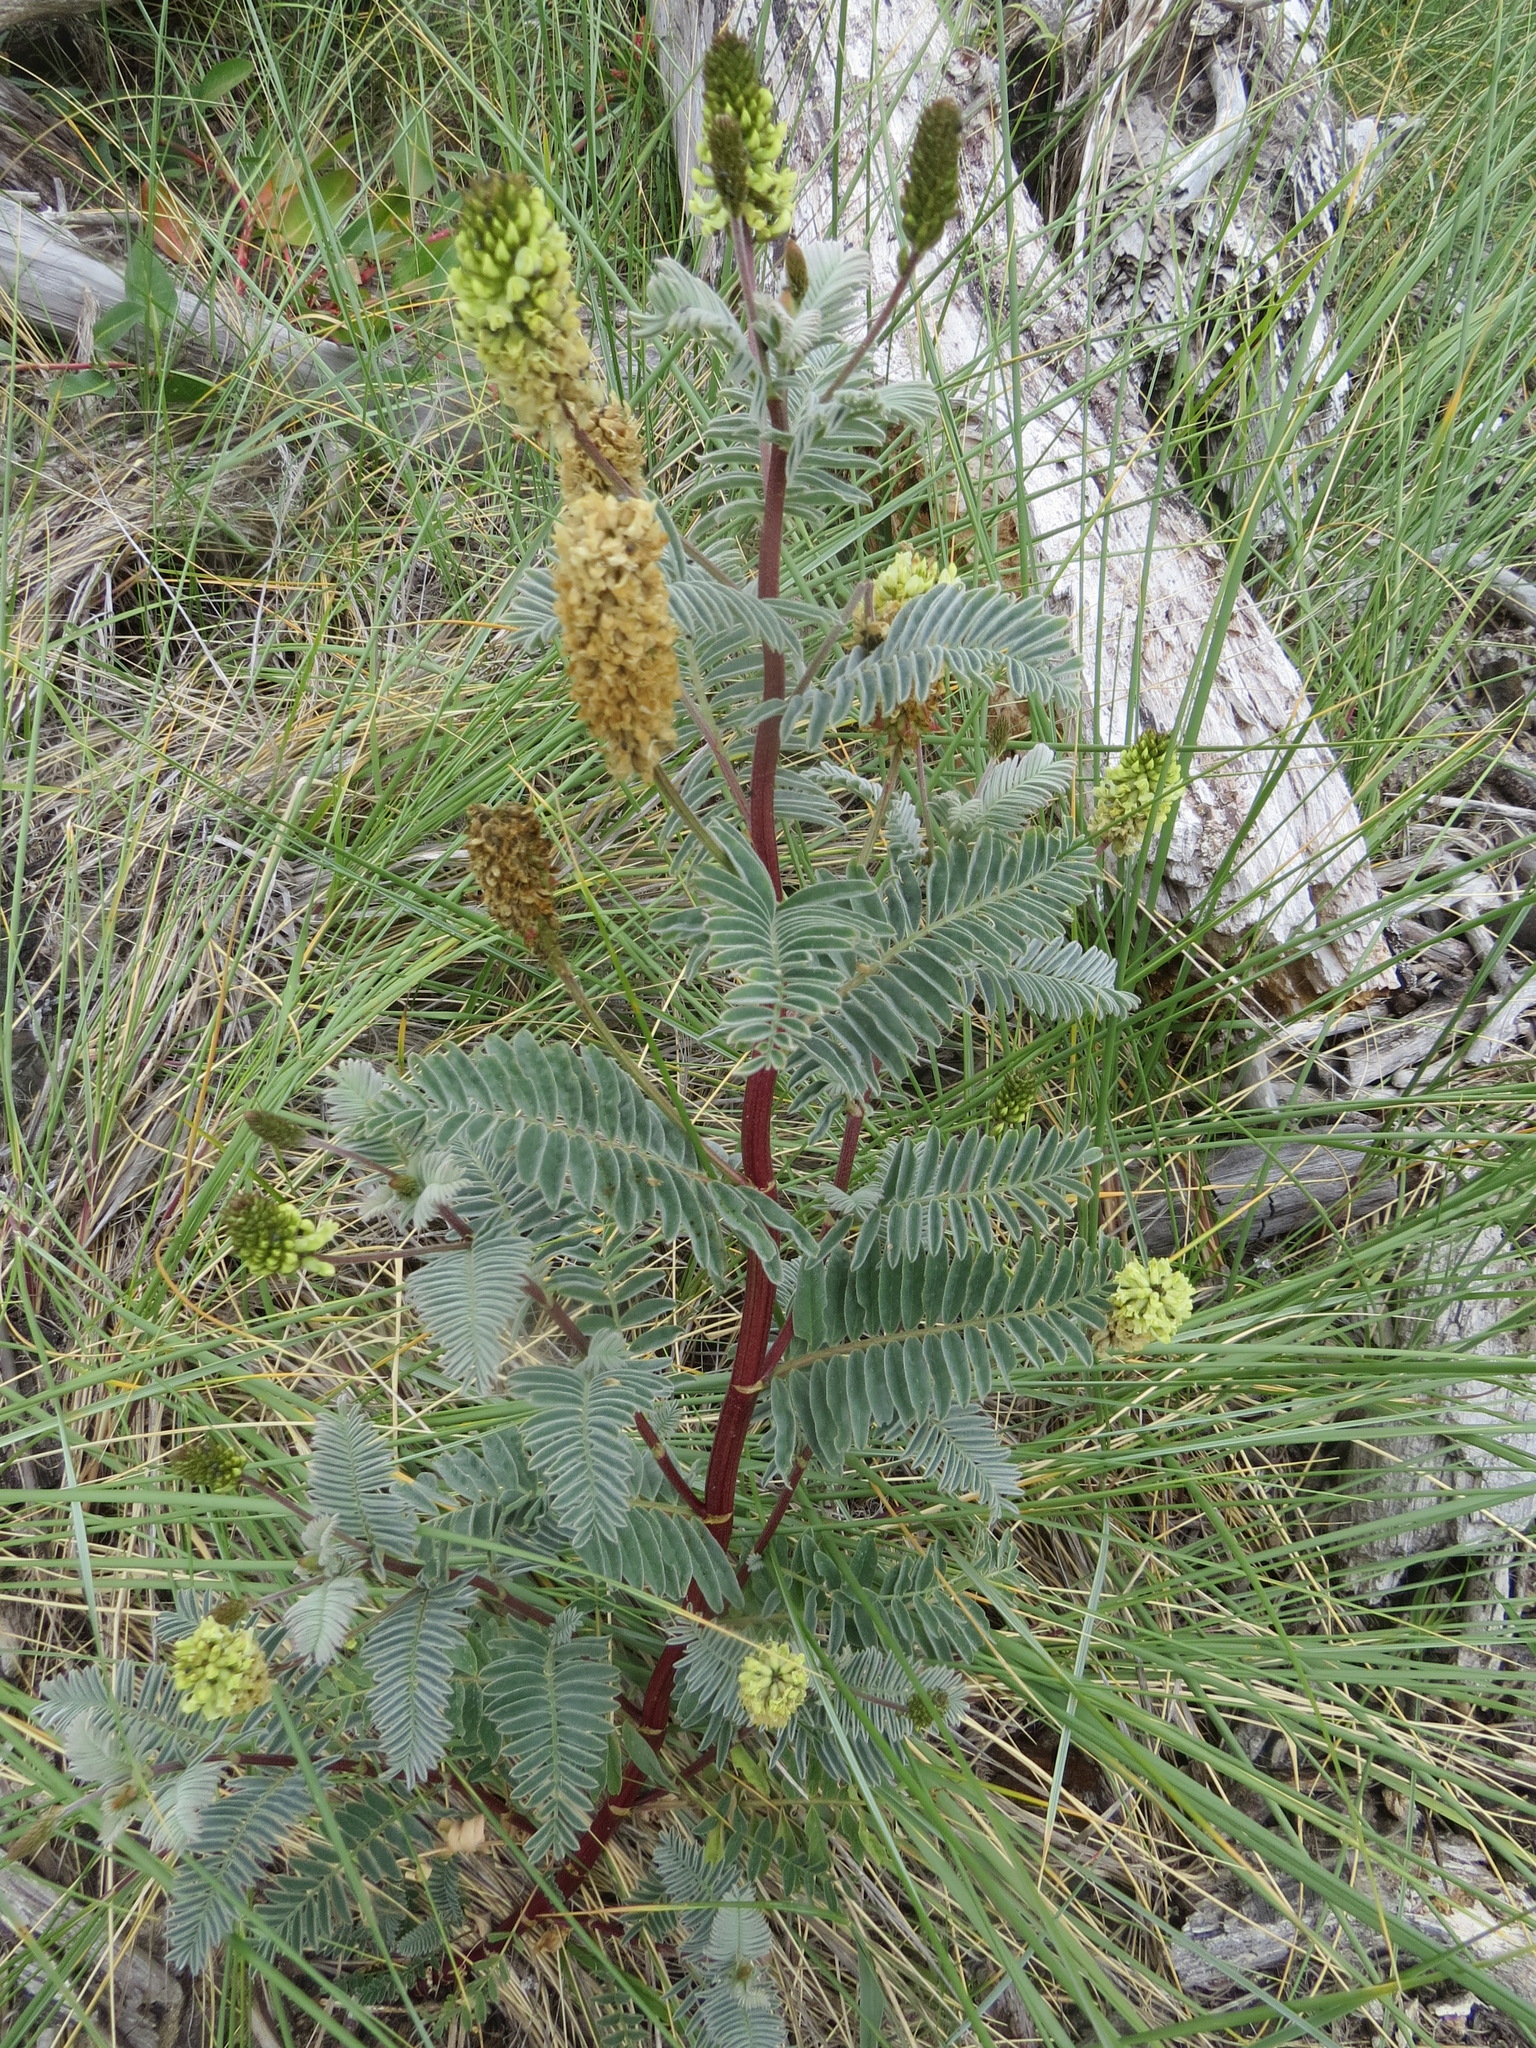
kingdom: Plantae
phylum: Tracheophyta
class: Magnoliopsida
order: Fabales
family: Fabaceae
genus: Astragalus
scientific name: Astragalus pycnostachyus
